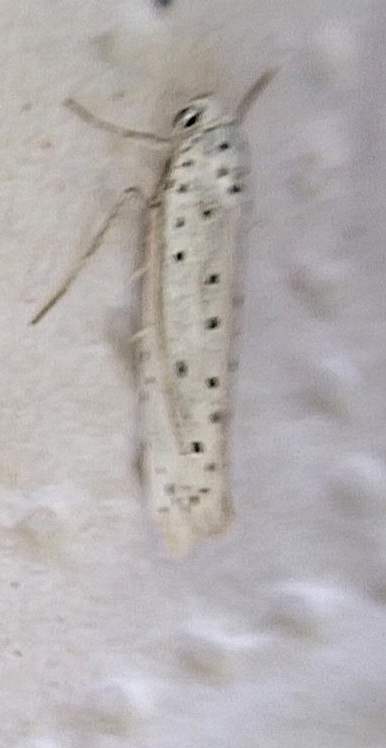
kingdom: Animalia
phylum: Arthropoda
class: Insecta
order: Lepidoptera
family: Yponomeutidae
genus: Yponomeuta
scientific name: Yponomeuta
